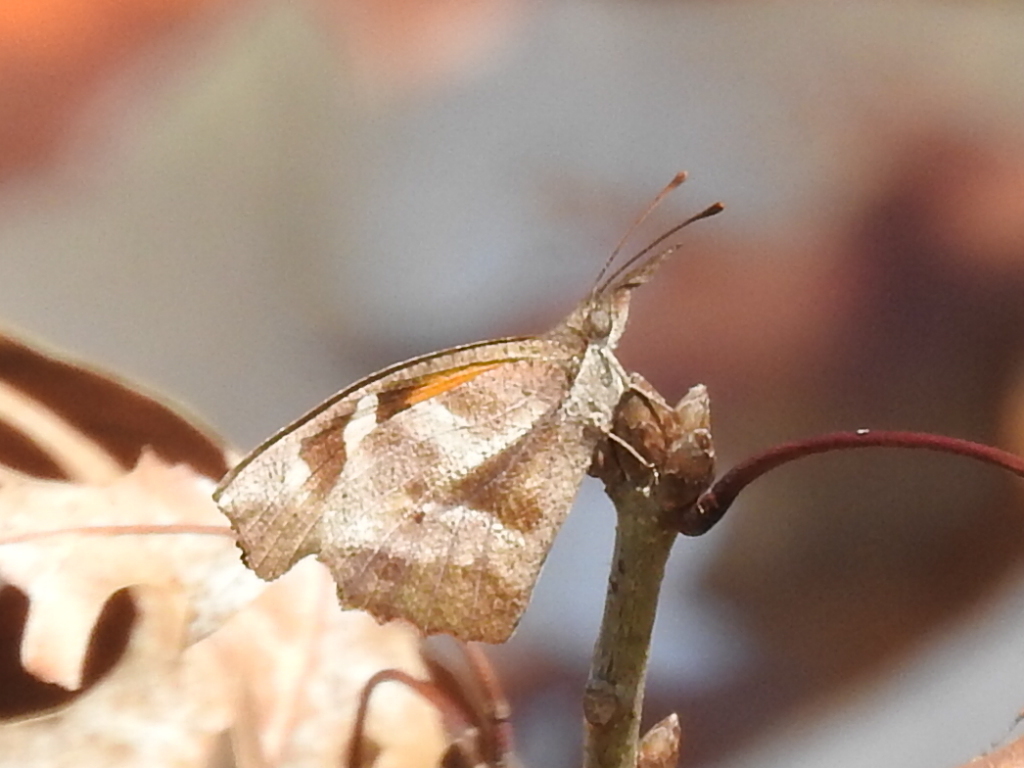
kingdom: Animalia
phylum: Arthropoda
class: Insecta
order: Lepidoptera
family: Nymphalidae
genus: Libytheana
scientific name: Libytheana carinenta
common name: American snout
